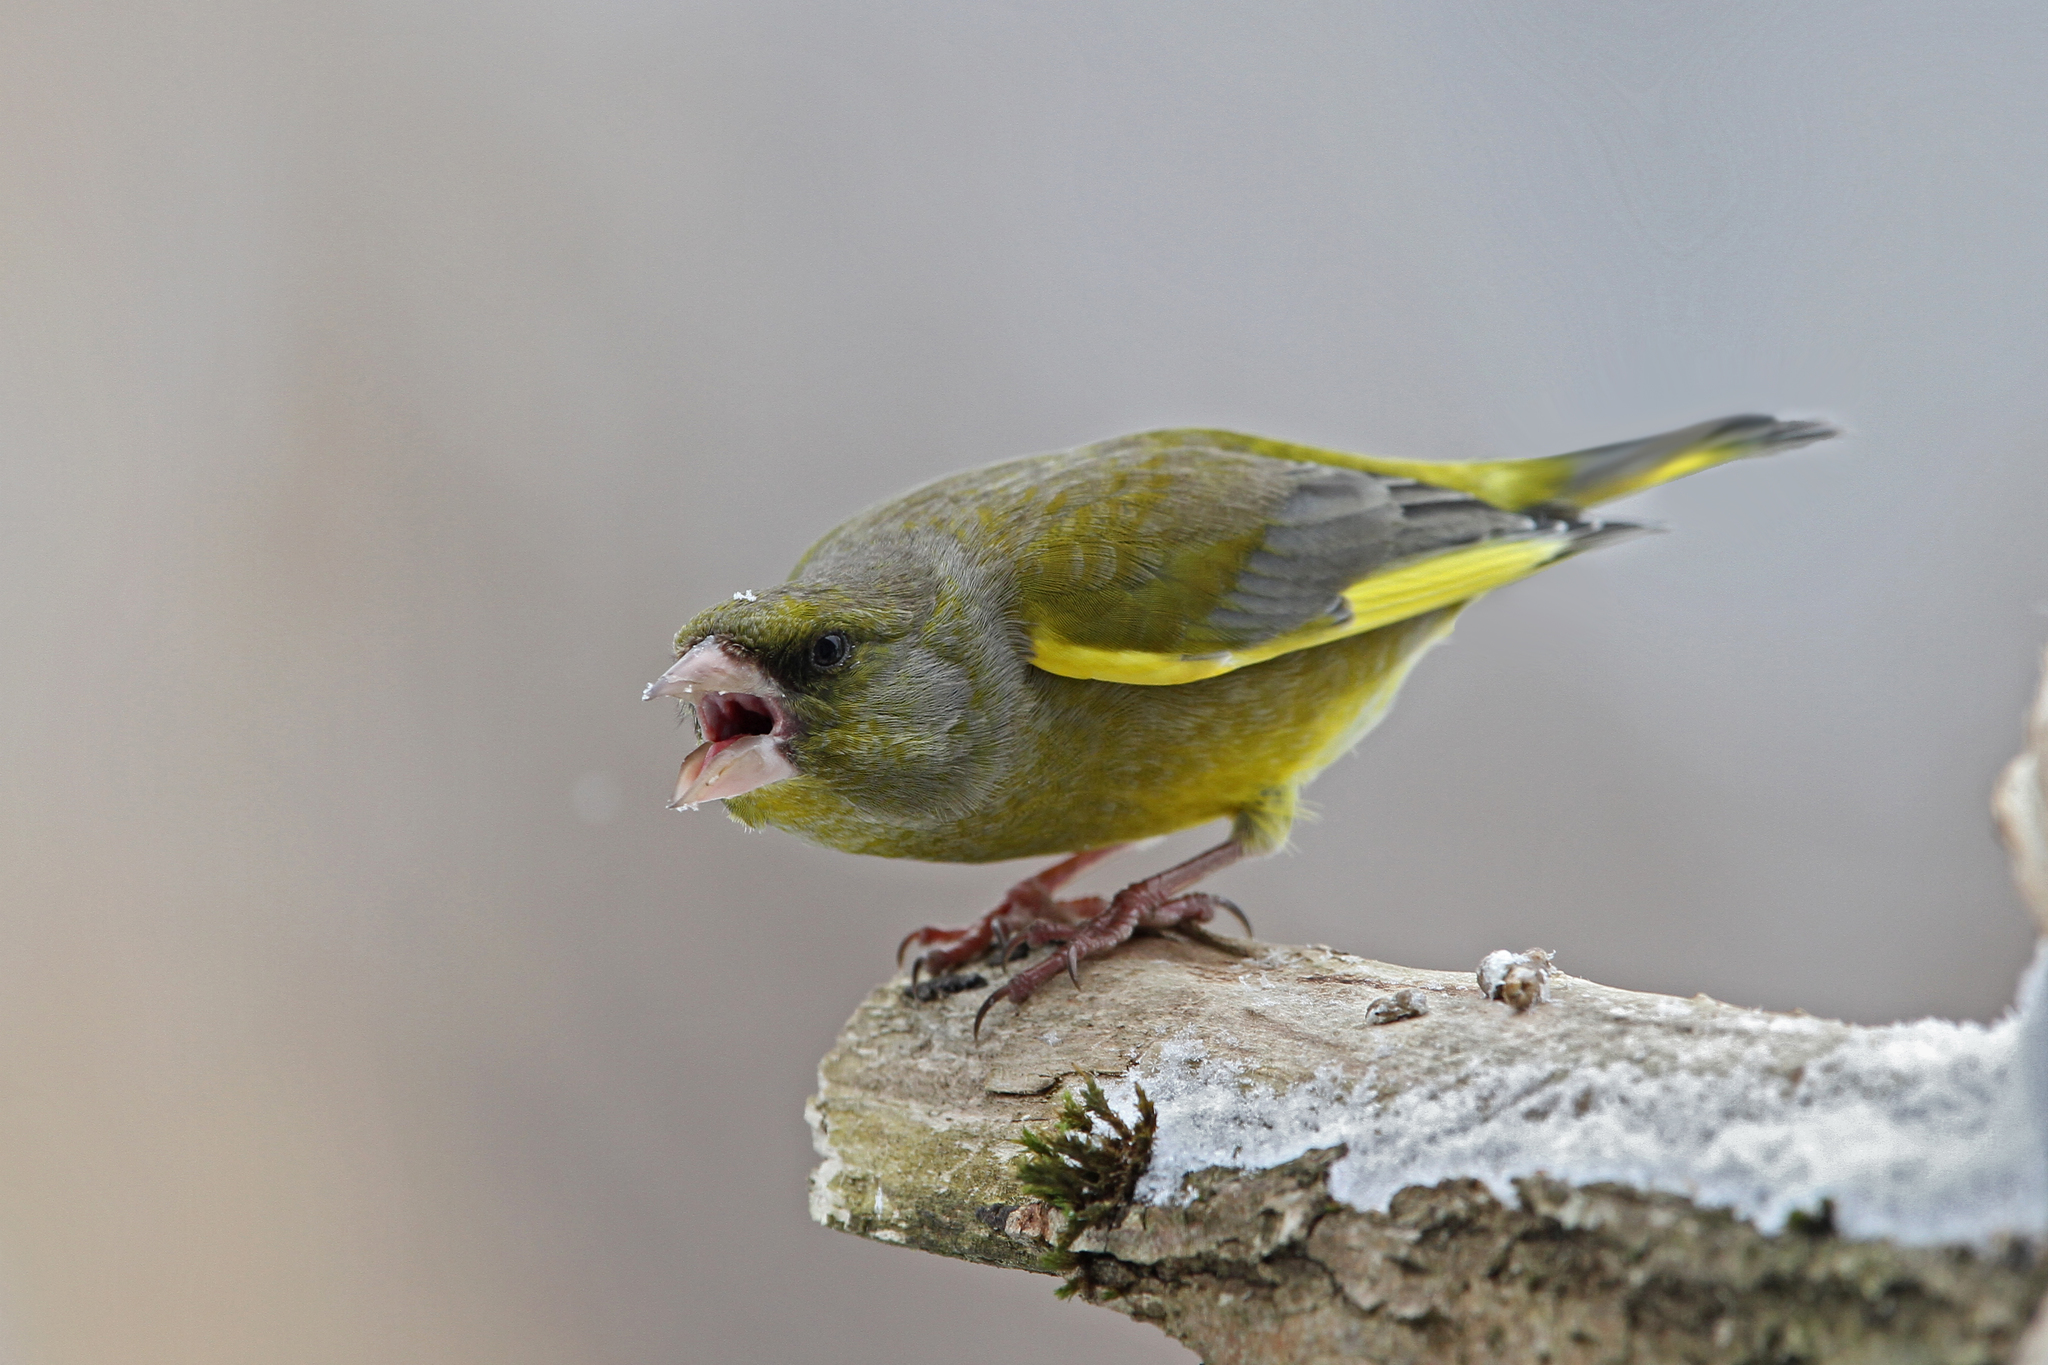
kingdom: Plantae
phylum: Tracheophyta
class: Liliopsida
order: Poales
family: Poaceae
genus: Chloris
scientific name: Chloris chloris
